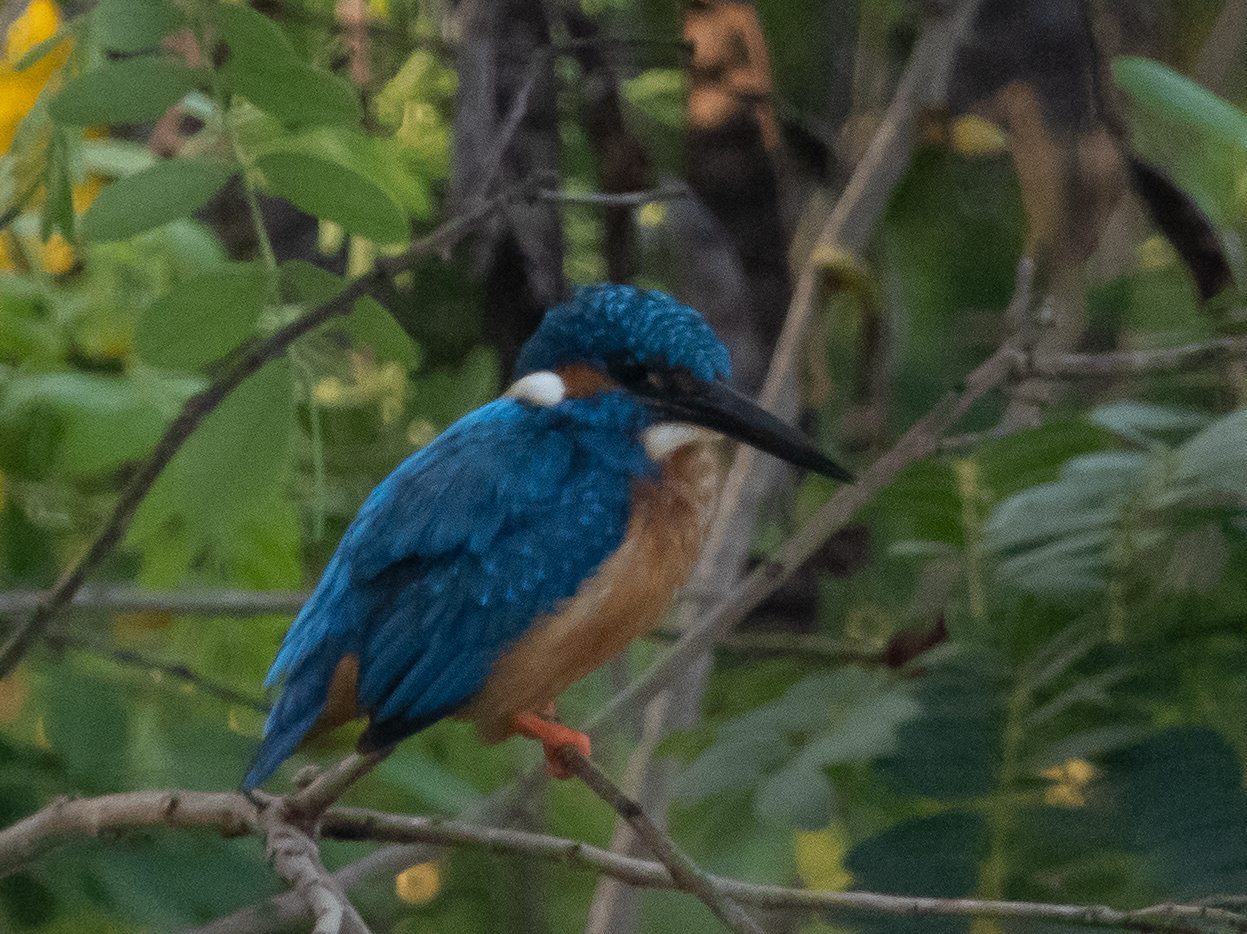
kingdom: Animalia
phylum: Chordata
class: Aves
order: Coraciiformes
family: Alcedinidae
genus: Alcedo
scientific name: Alcedo atthis
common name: Common kingfisher
